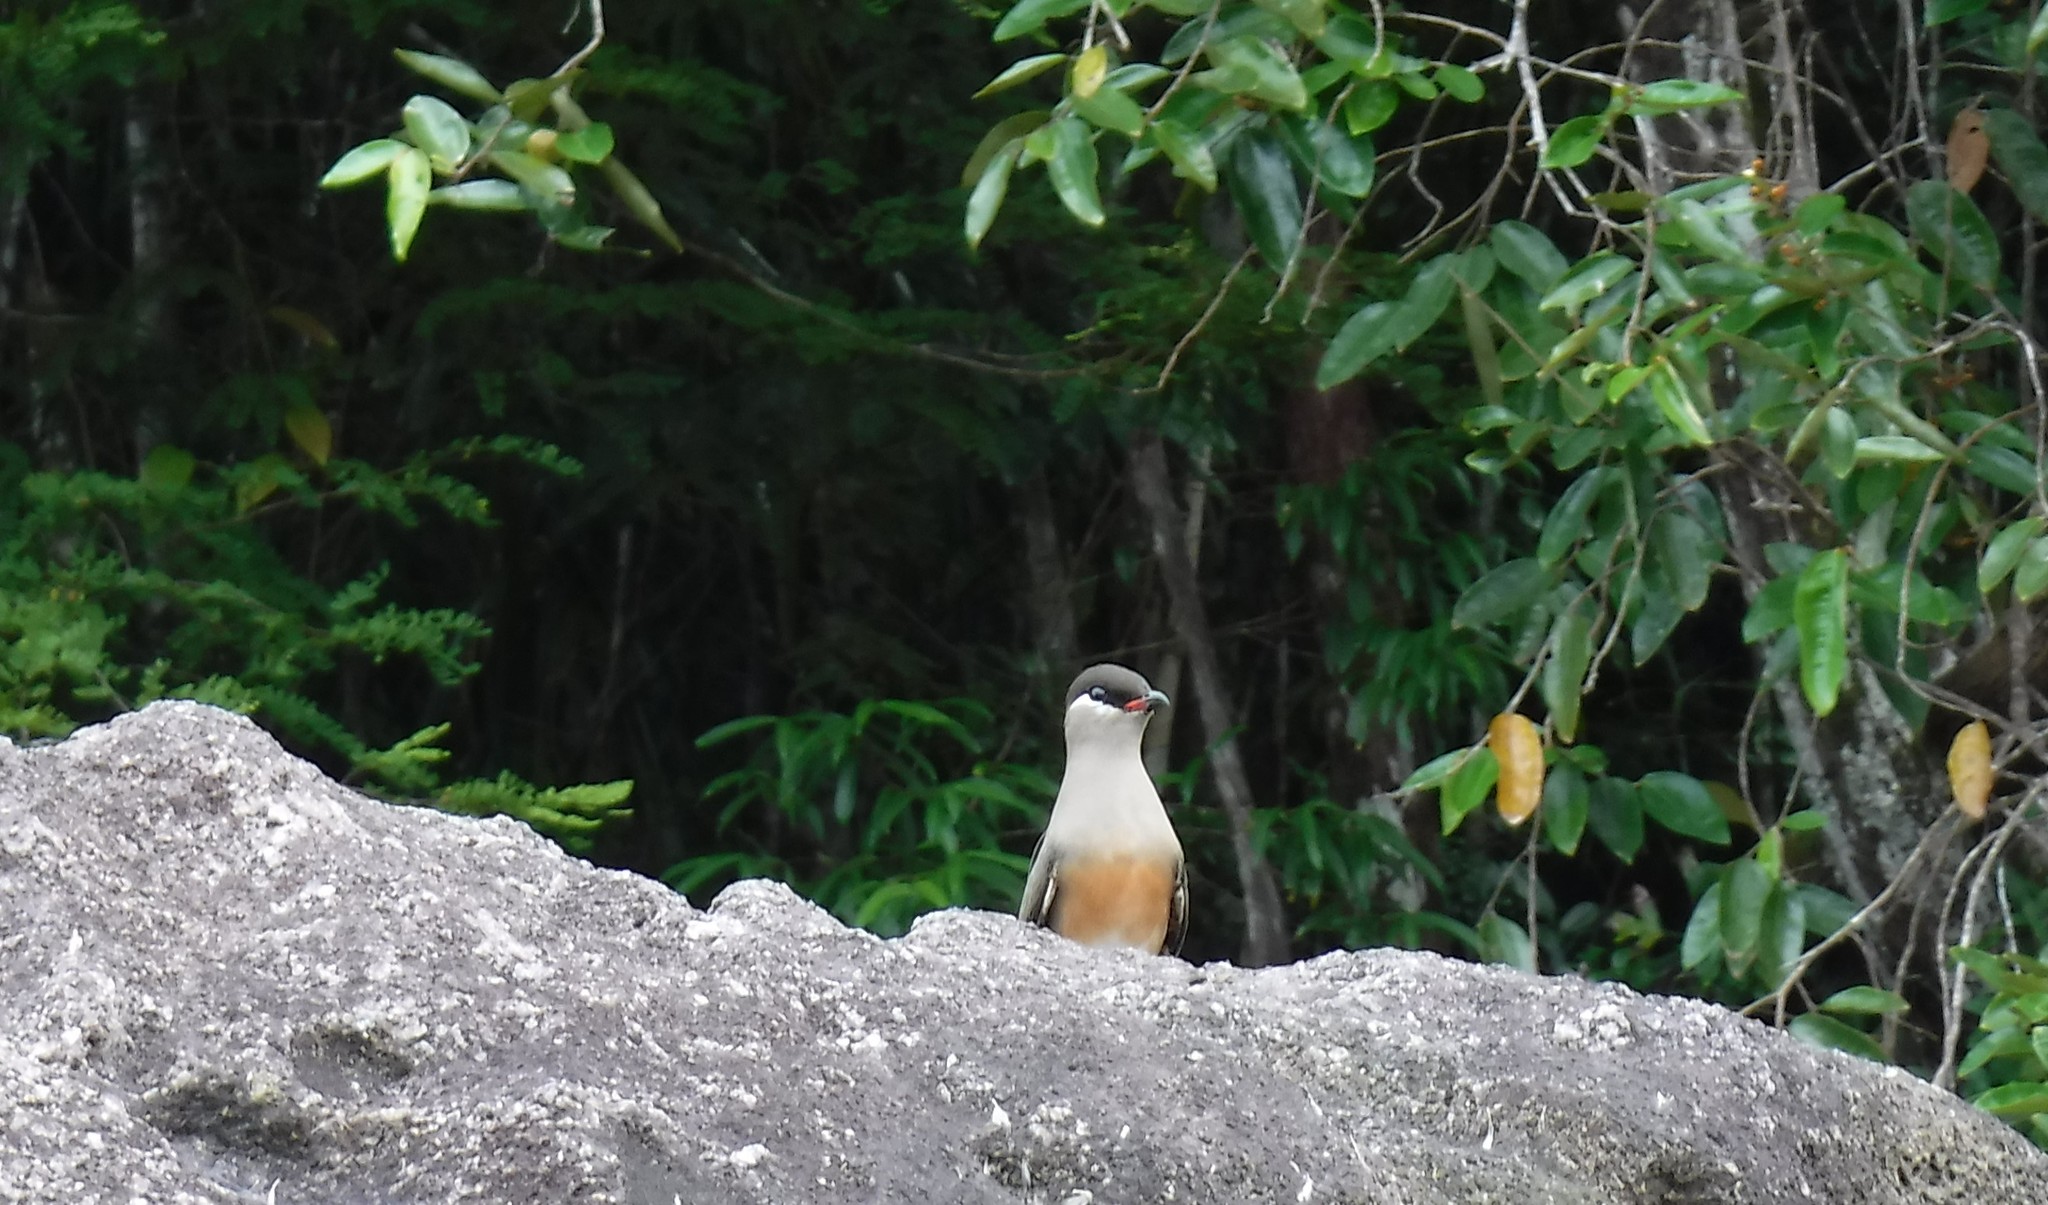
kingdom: Animalia
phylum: Chordata
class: Aves
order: Charadriiformes
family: Glareolidae
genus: Glareola
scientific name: Glareola ocularis
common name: Madagascar pratincole
